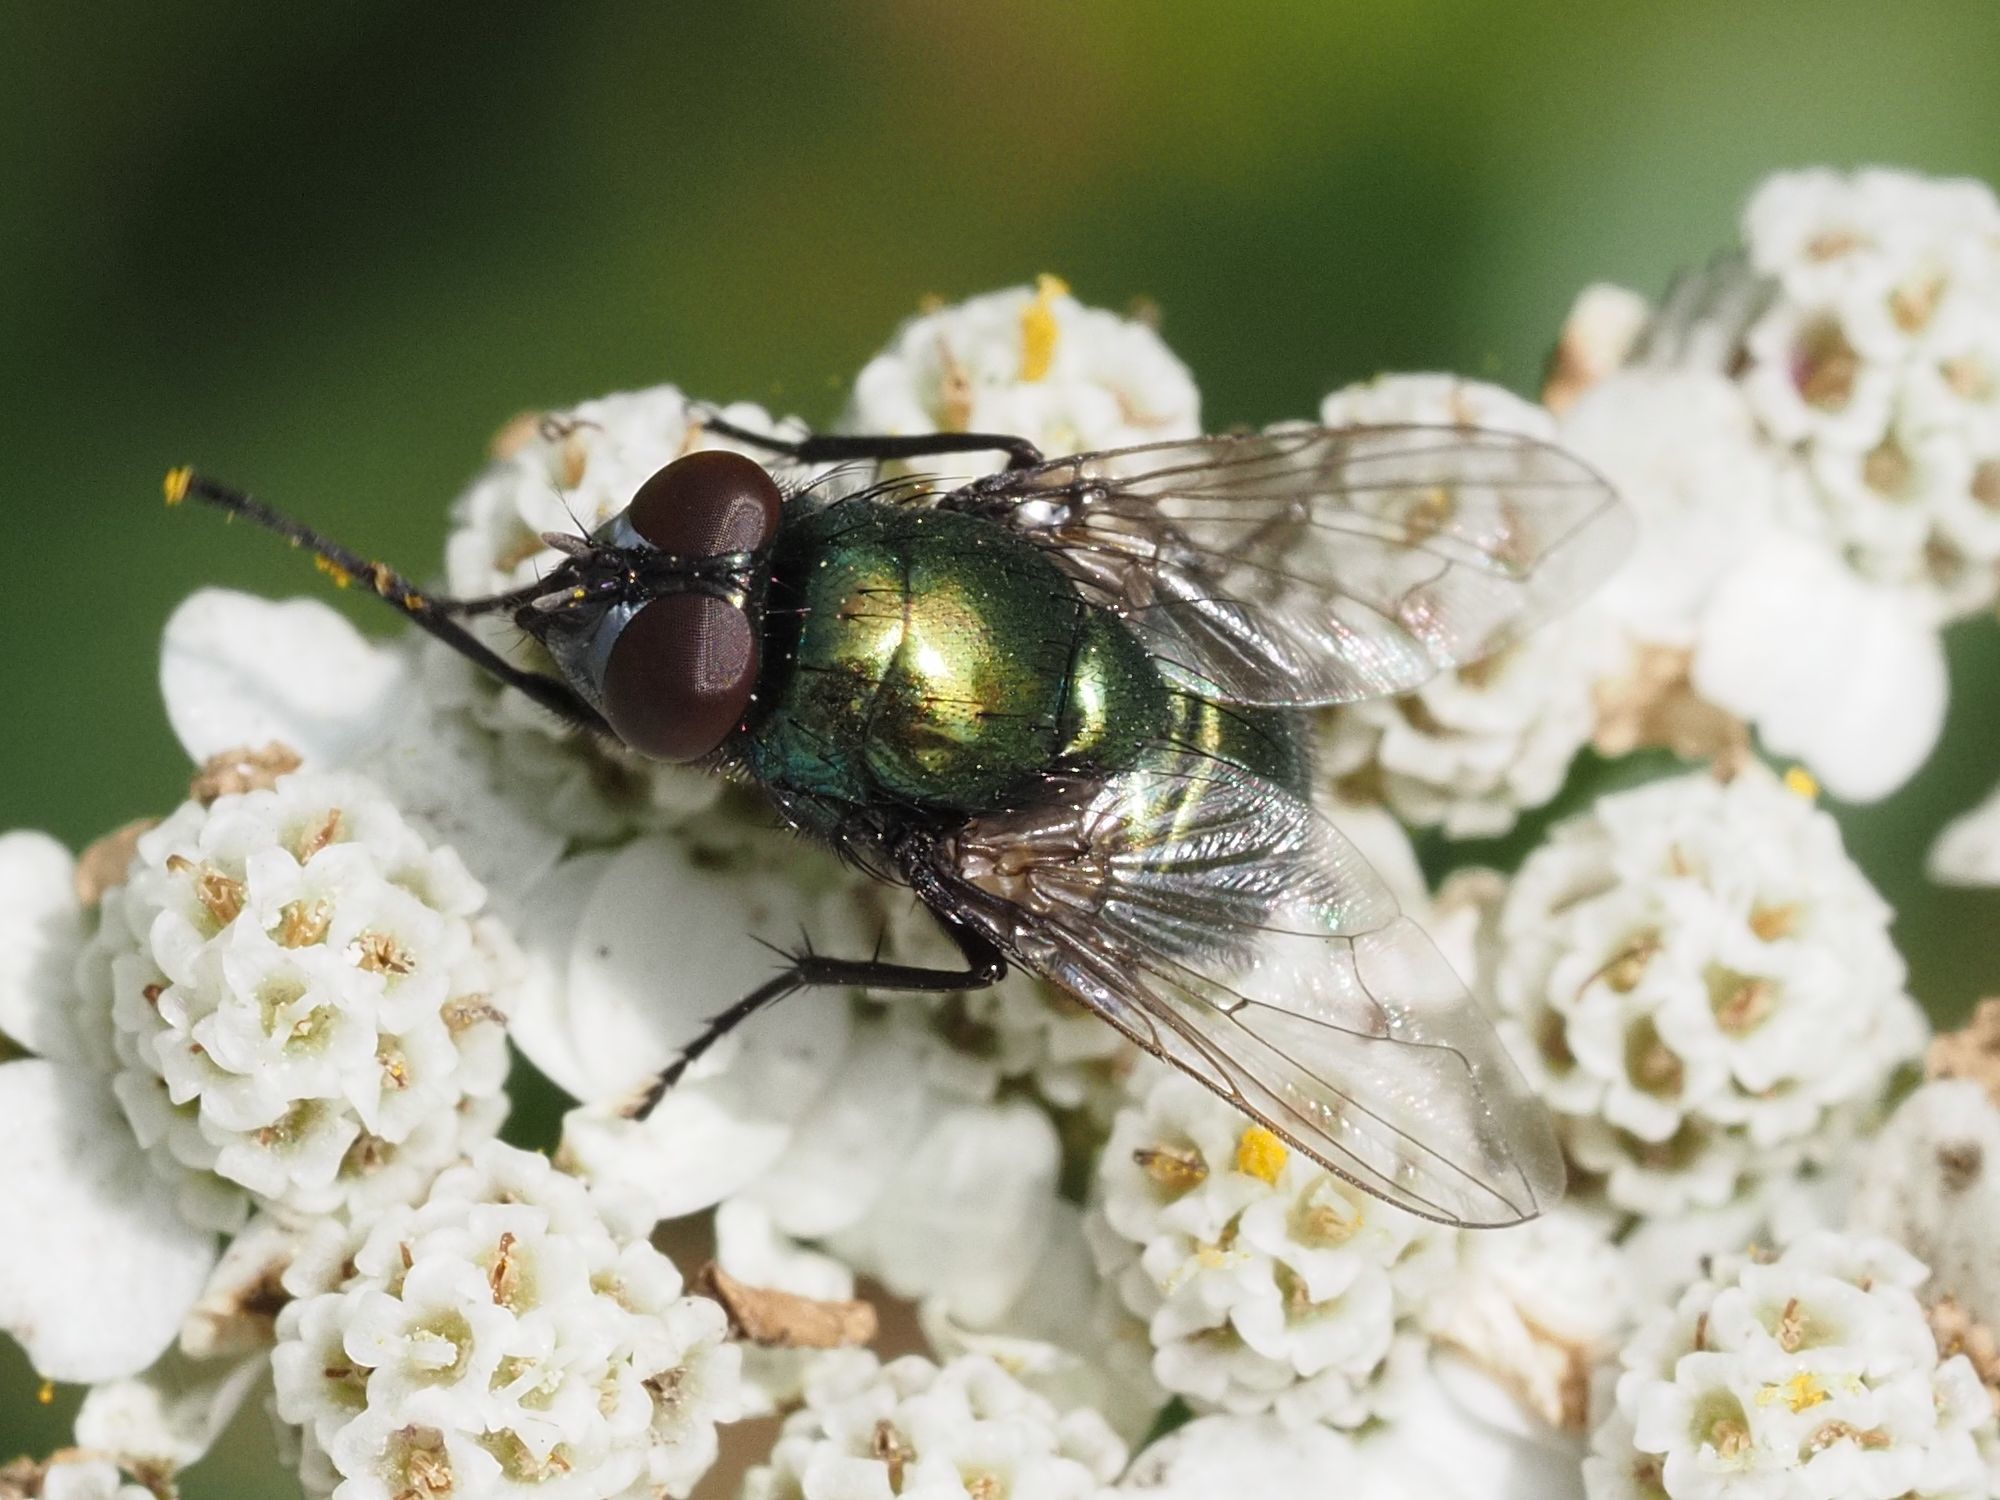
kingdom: Animalia
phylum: Arthropoda
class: Insecta
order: Diptera
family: Muscidae
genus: Neomyia
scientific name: Neomyia cornicina
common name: House fly
